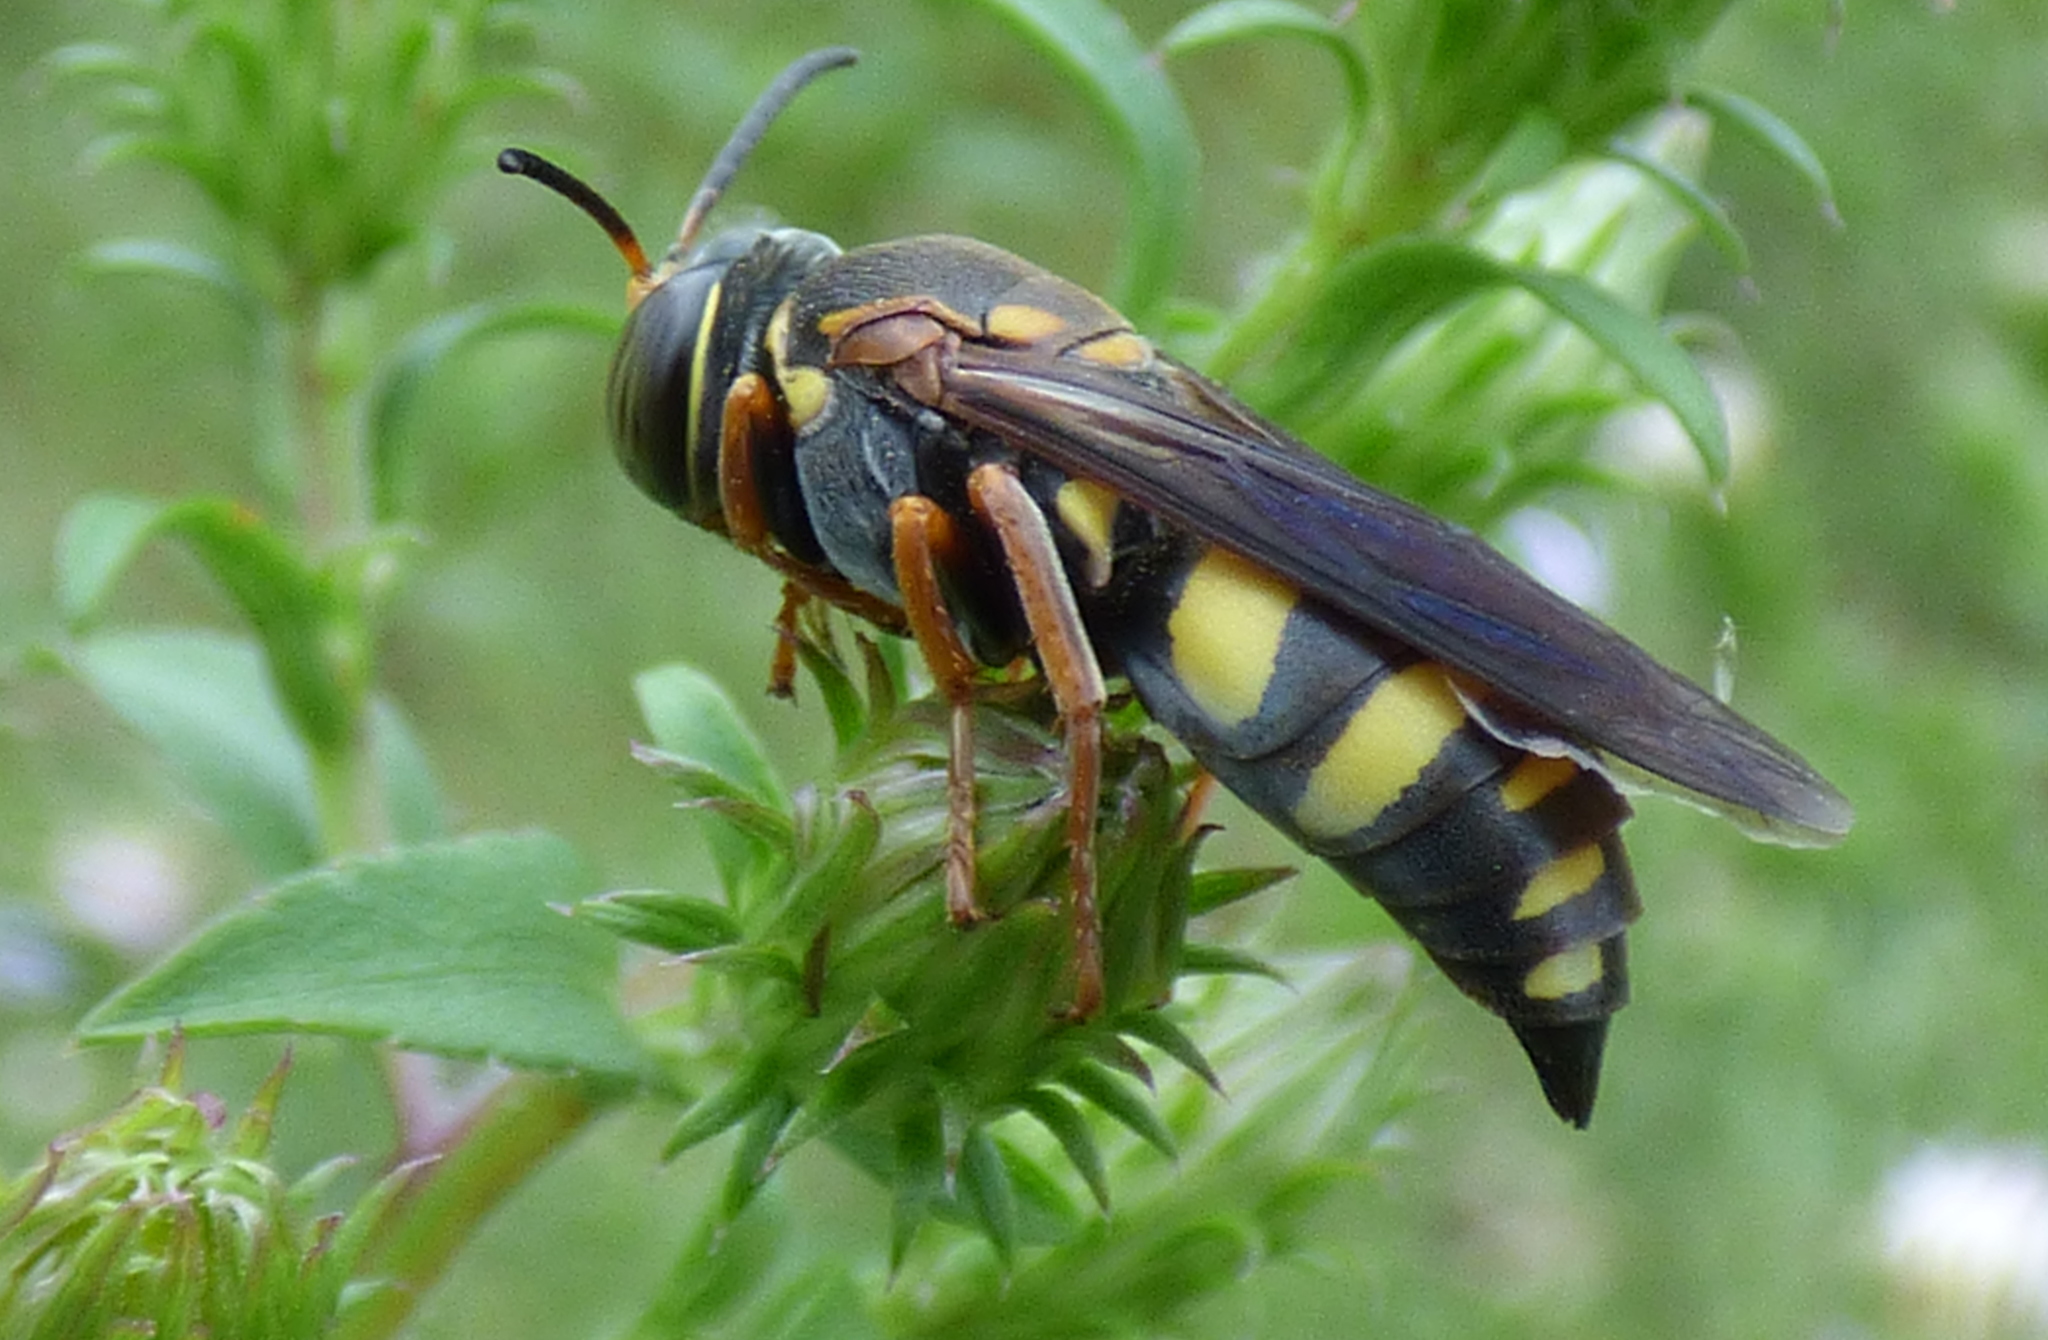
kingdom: Animalia
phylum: Arthropoda
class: Insecta
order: Hymenoptera
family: Crabronidae
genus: Bicyrtes
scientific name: Bicyrtes capnopterus
